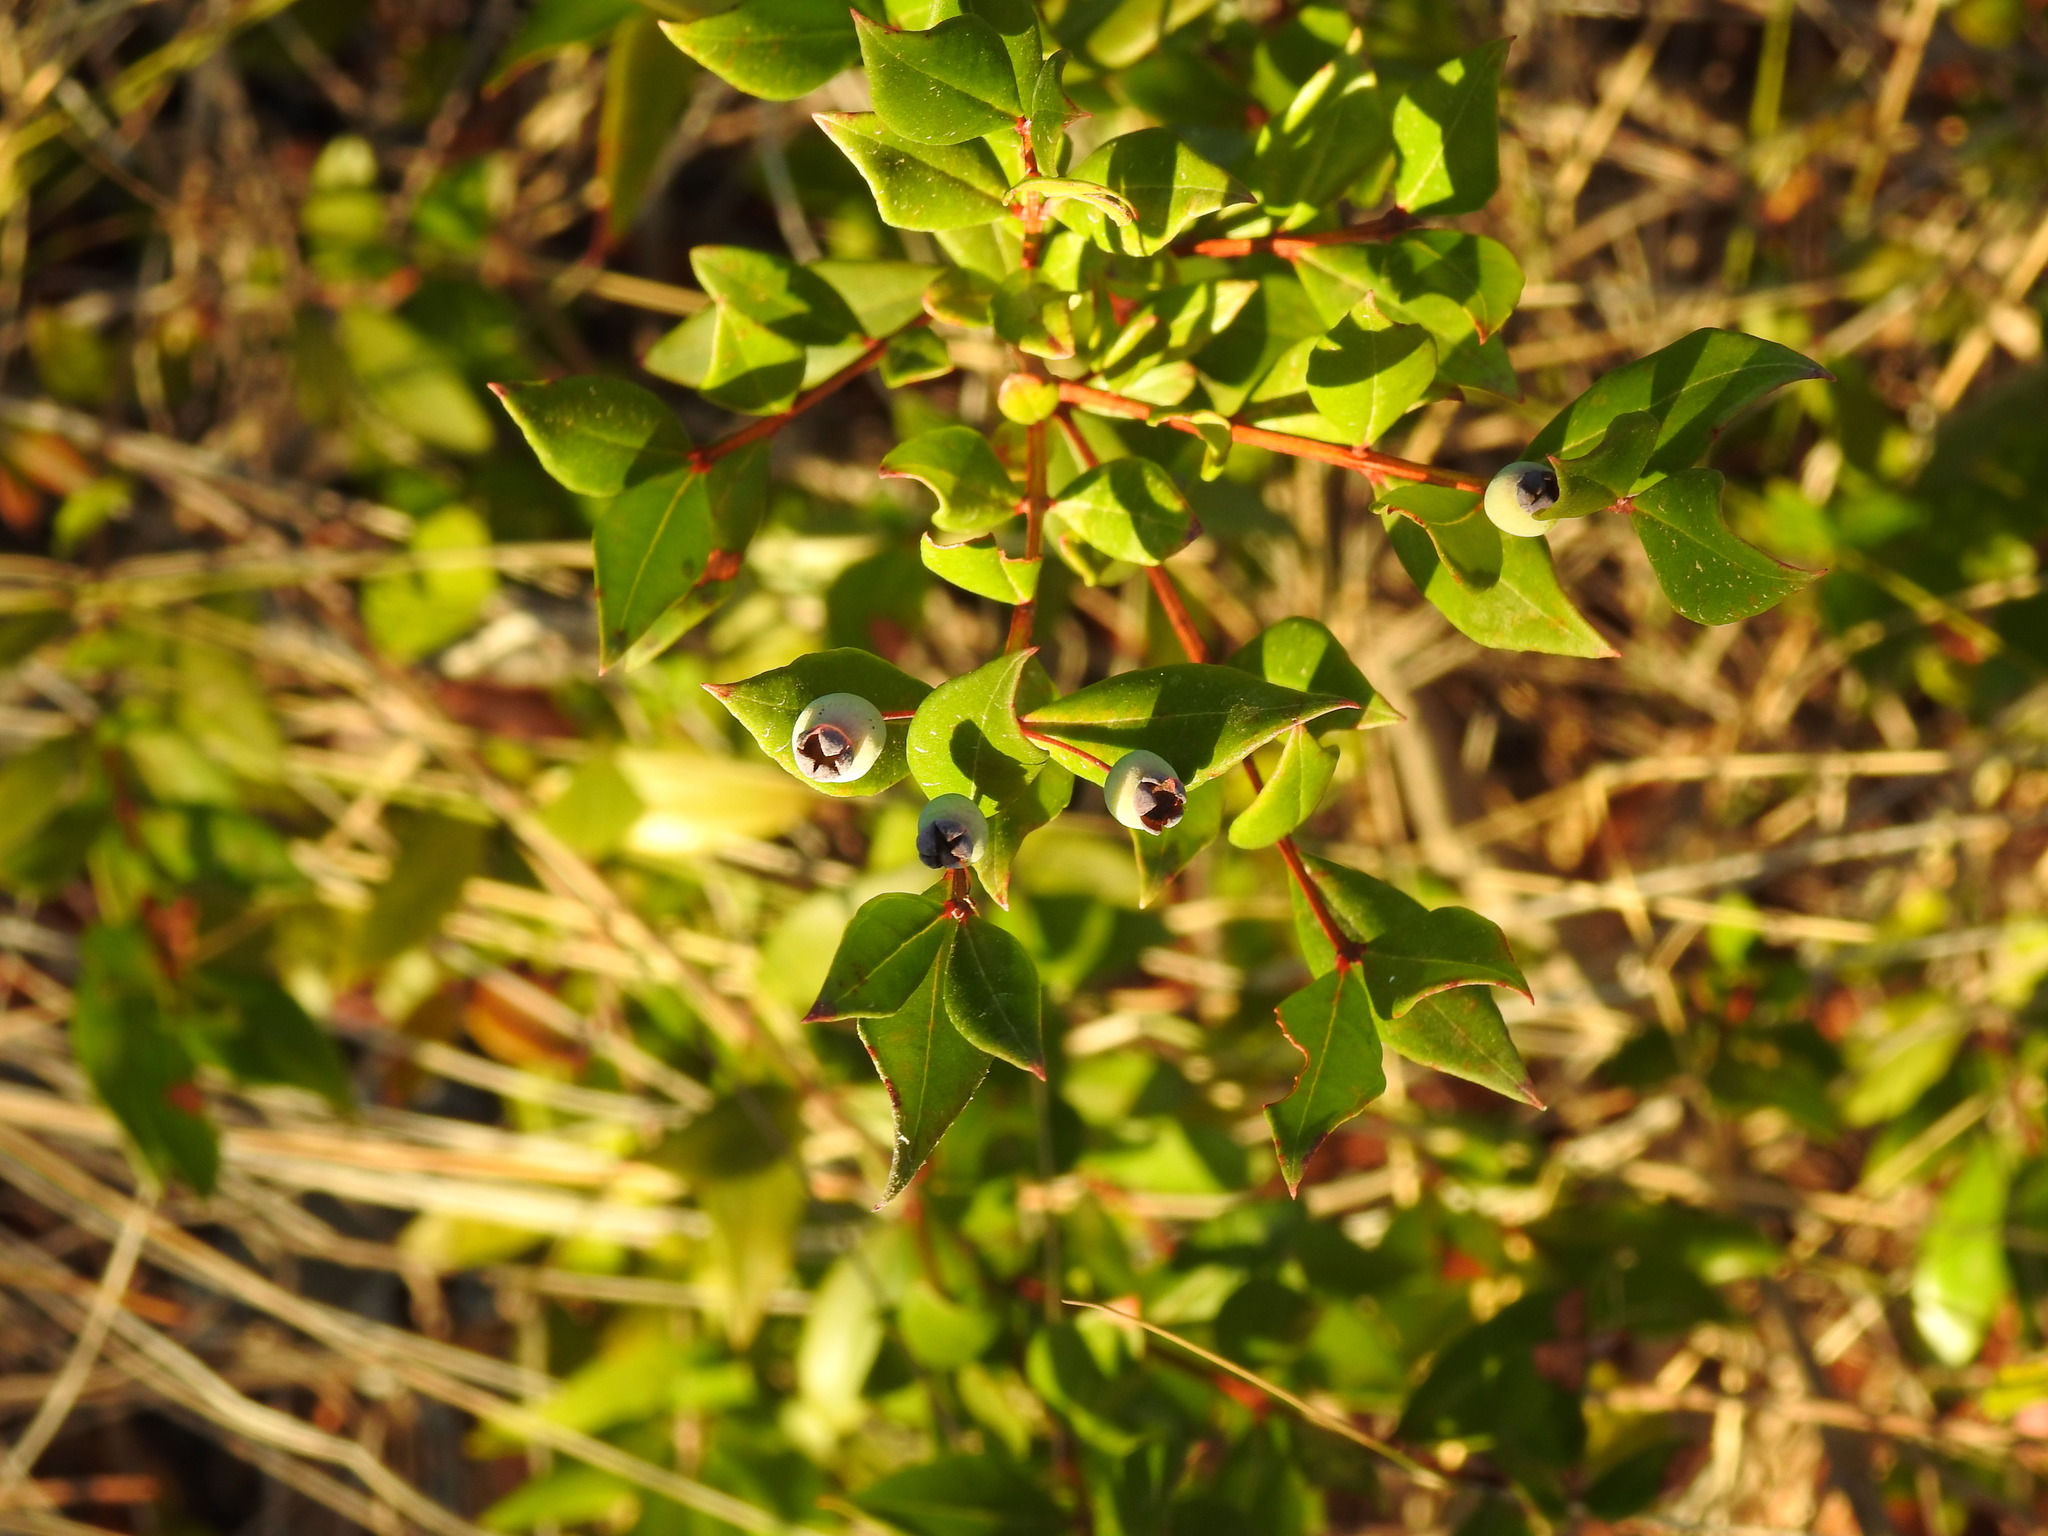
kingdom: Plantae
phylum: Tracheophyta
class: Magnoliopsida
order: Myrtales
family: Myrtaceae
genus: Myrtus
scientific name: Myrtus communis
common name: Myrtle
